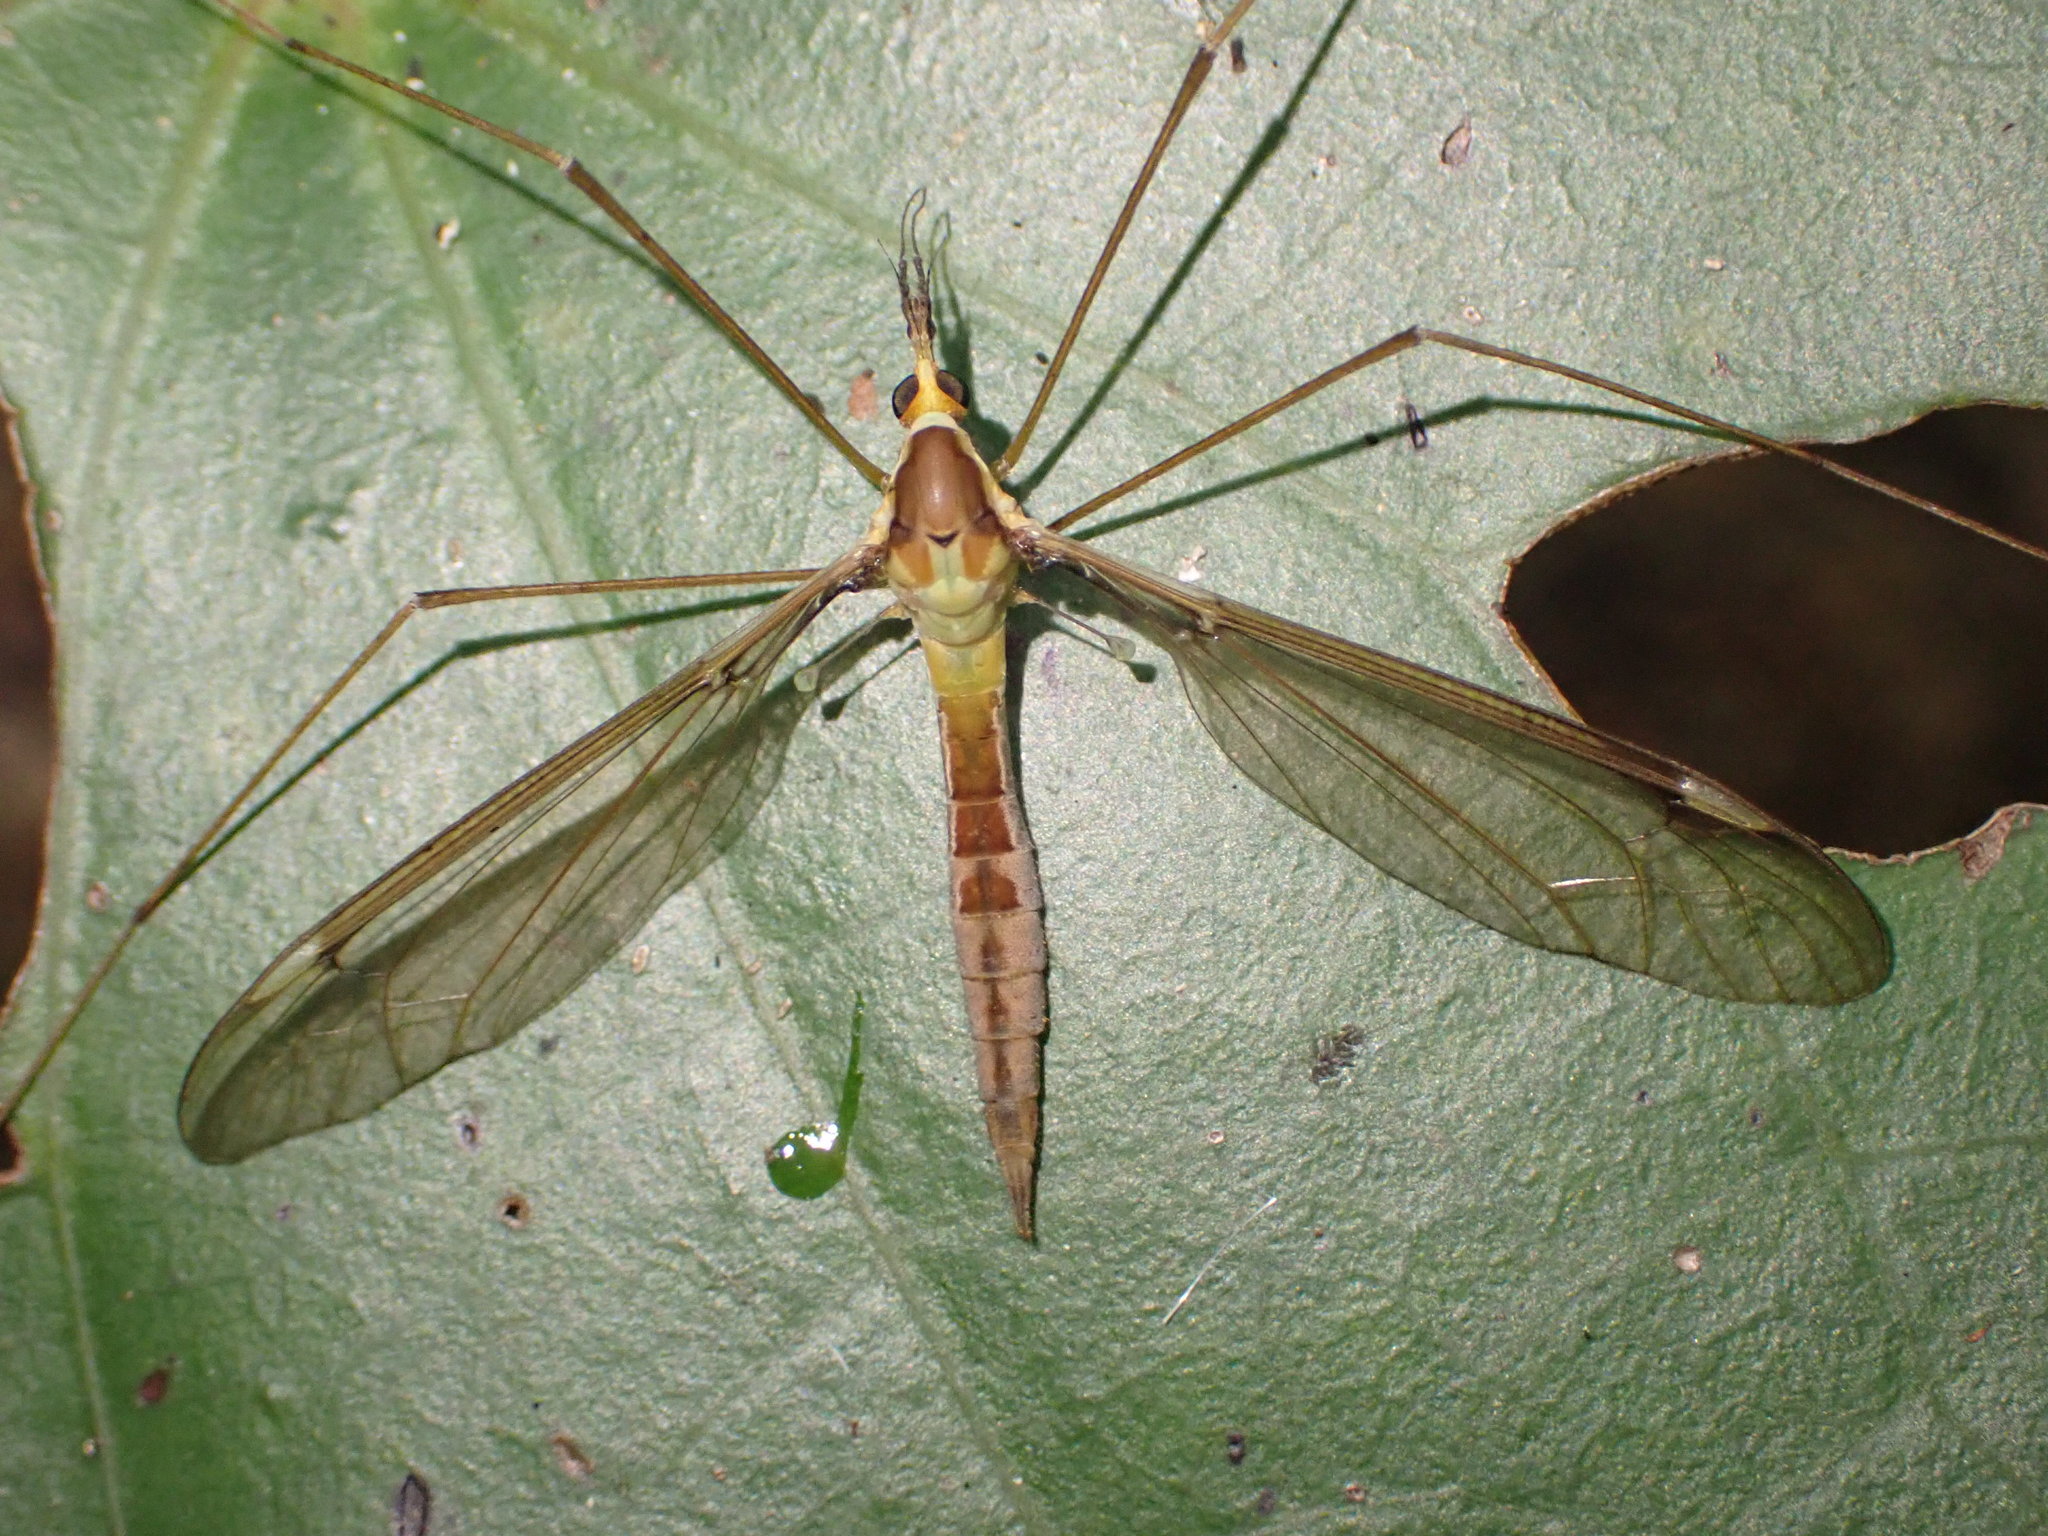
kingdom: Animalia
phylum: Arthropoda
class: Insecta
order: Diptera
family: Tipulidae
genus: Leptotarsus
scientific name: Leptotarsus albistigma
